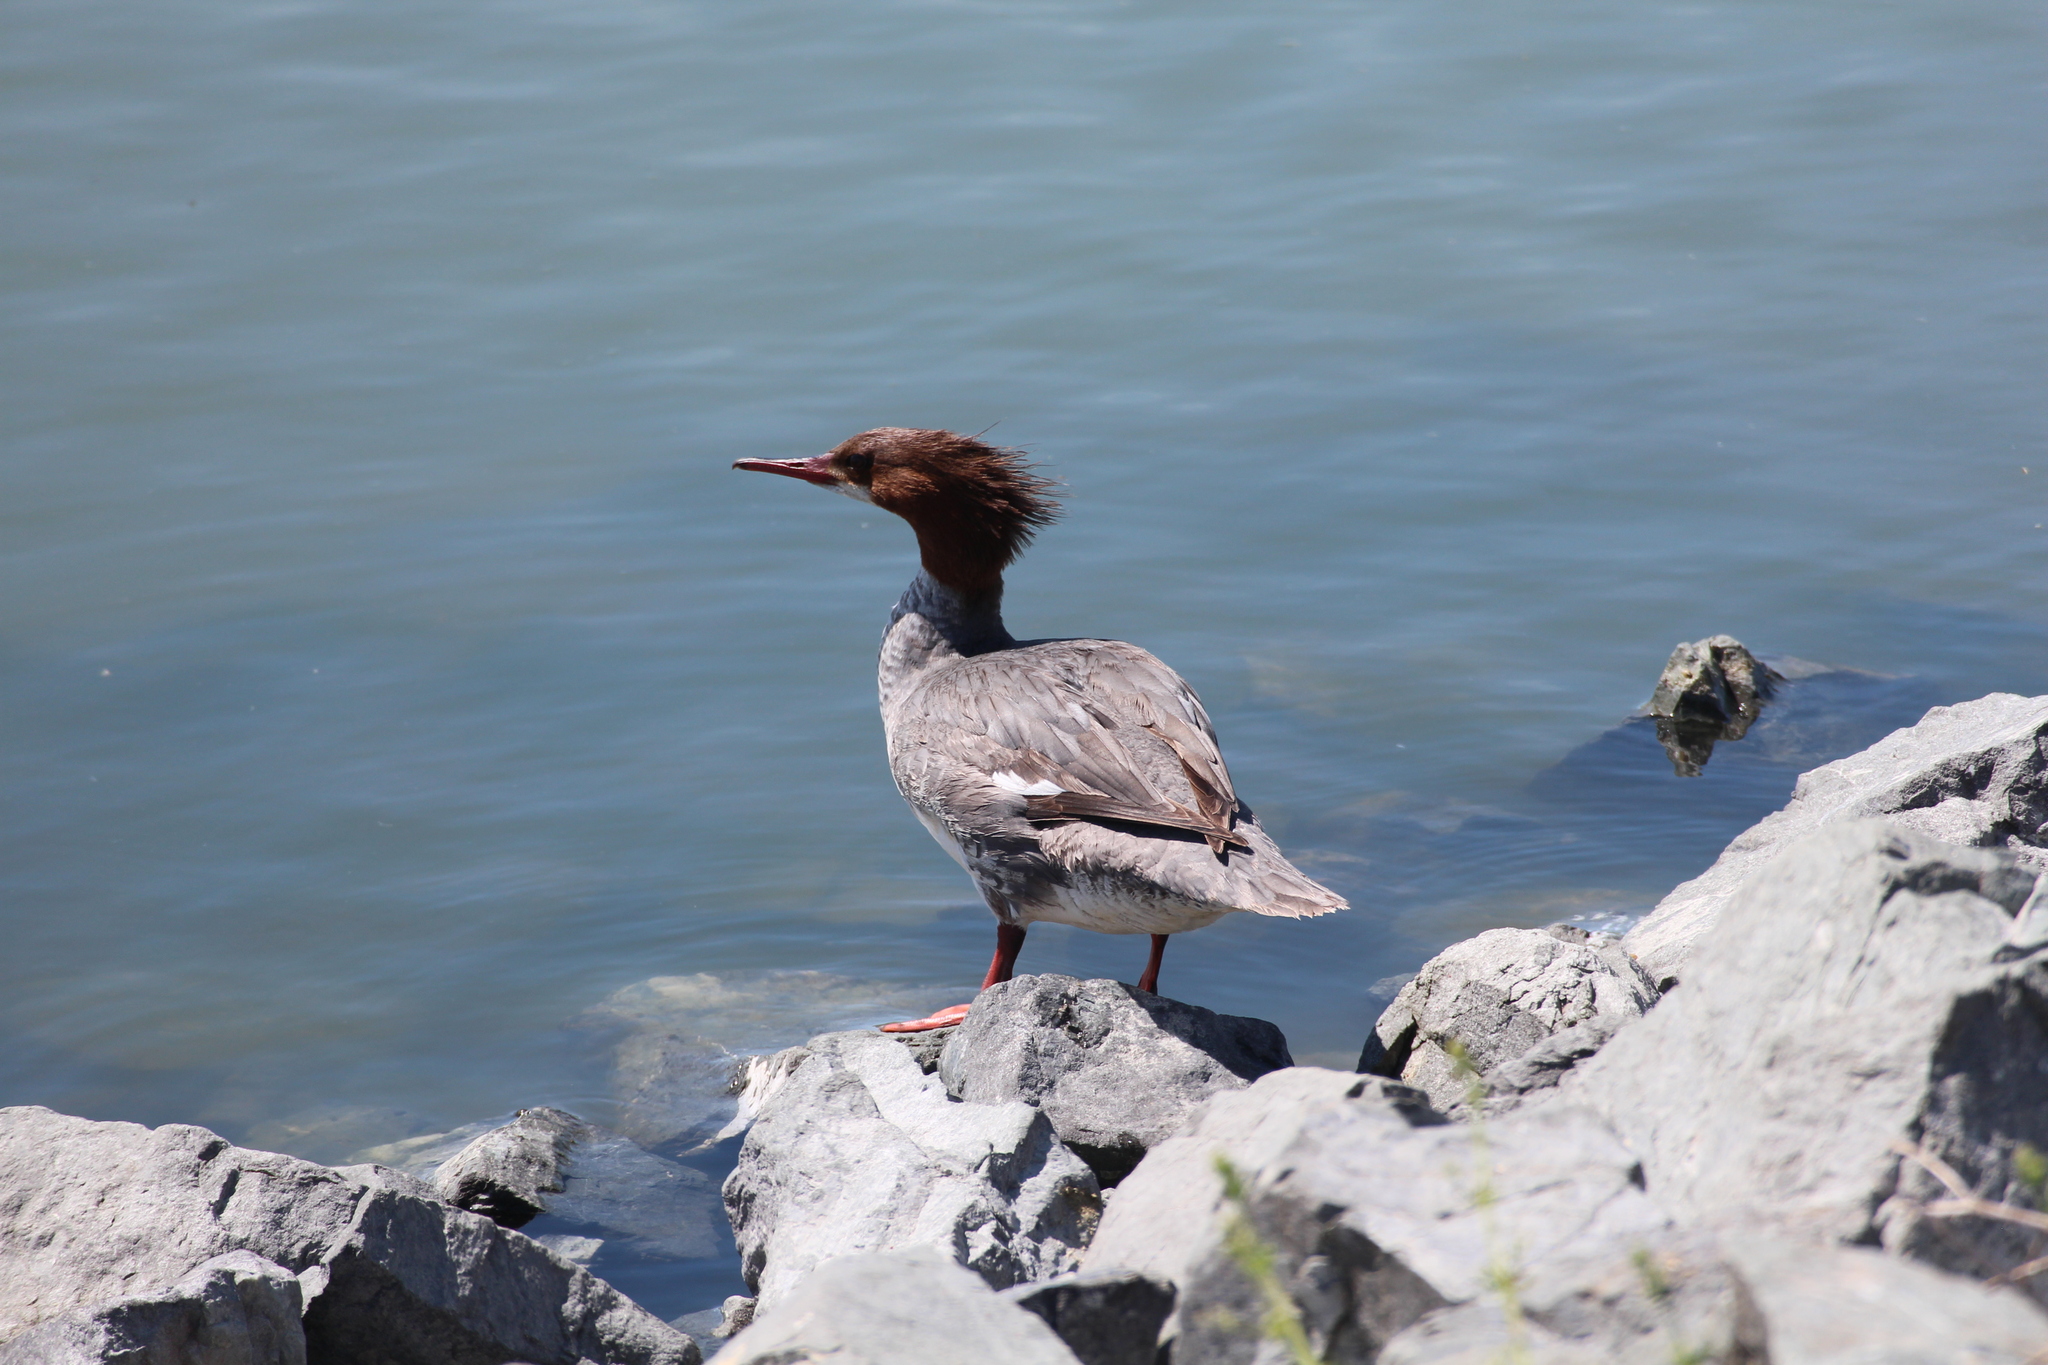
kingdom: Animalia
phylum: Chordata
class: Aves
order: Anseriformes
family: Anatidae
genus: Mergus
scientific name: Mergus merganser
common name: Common merganser
